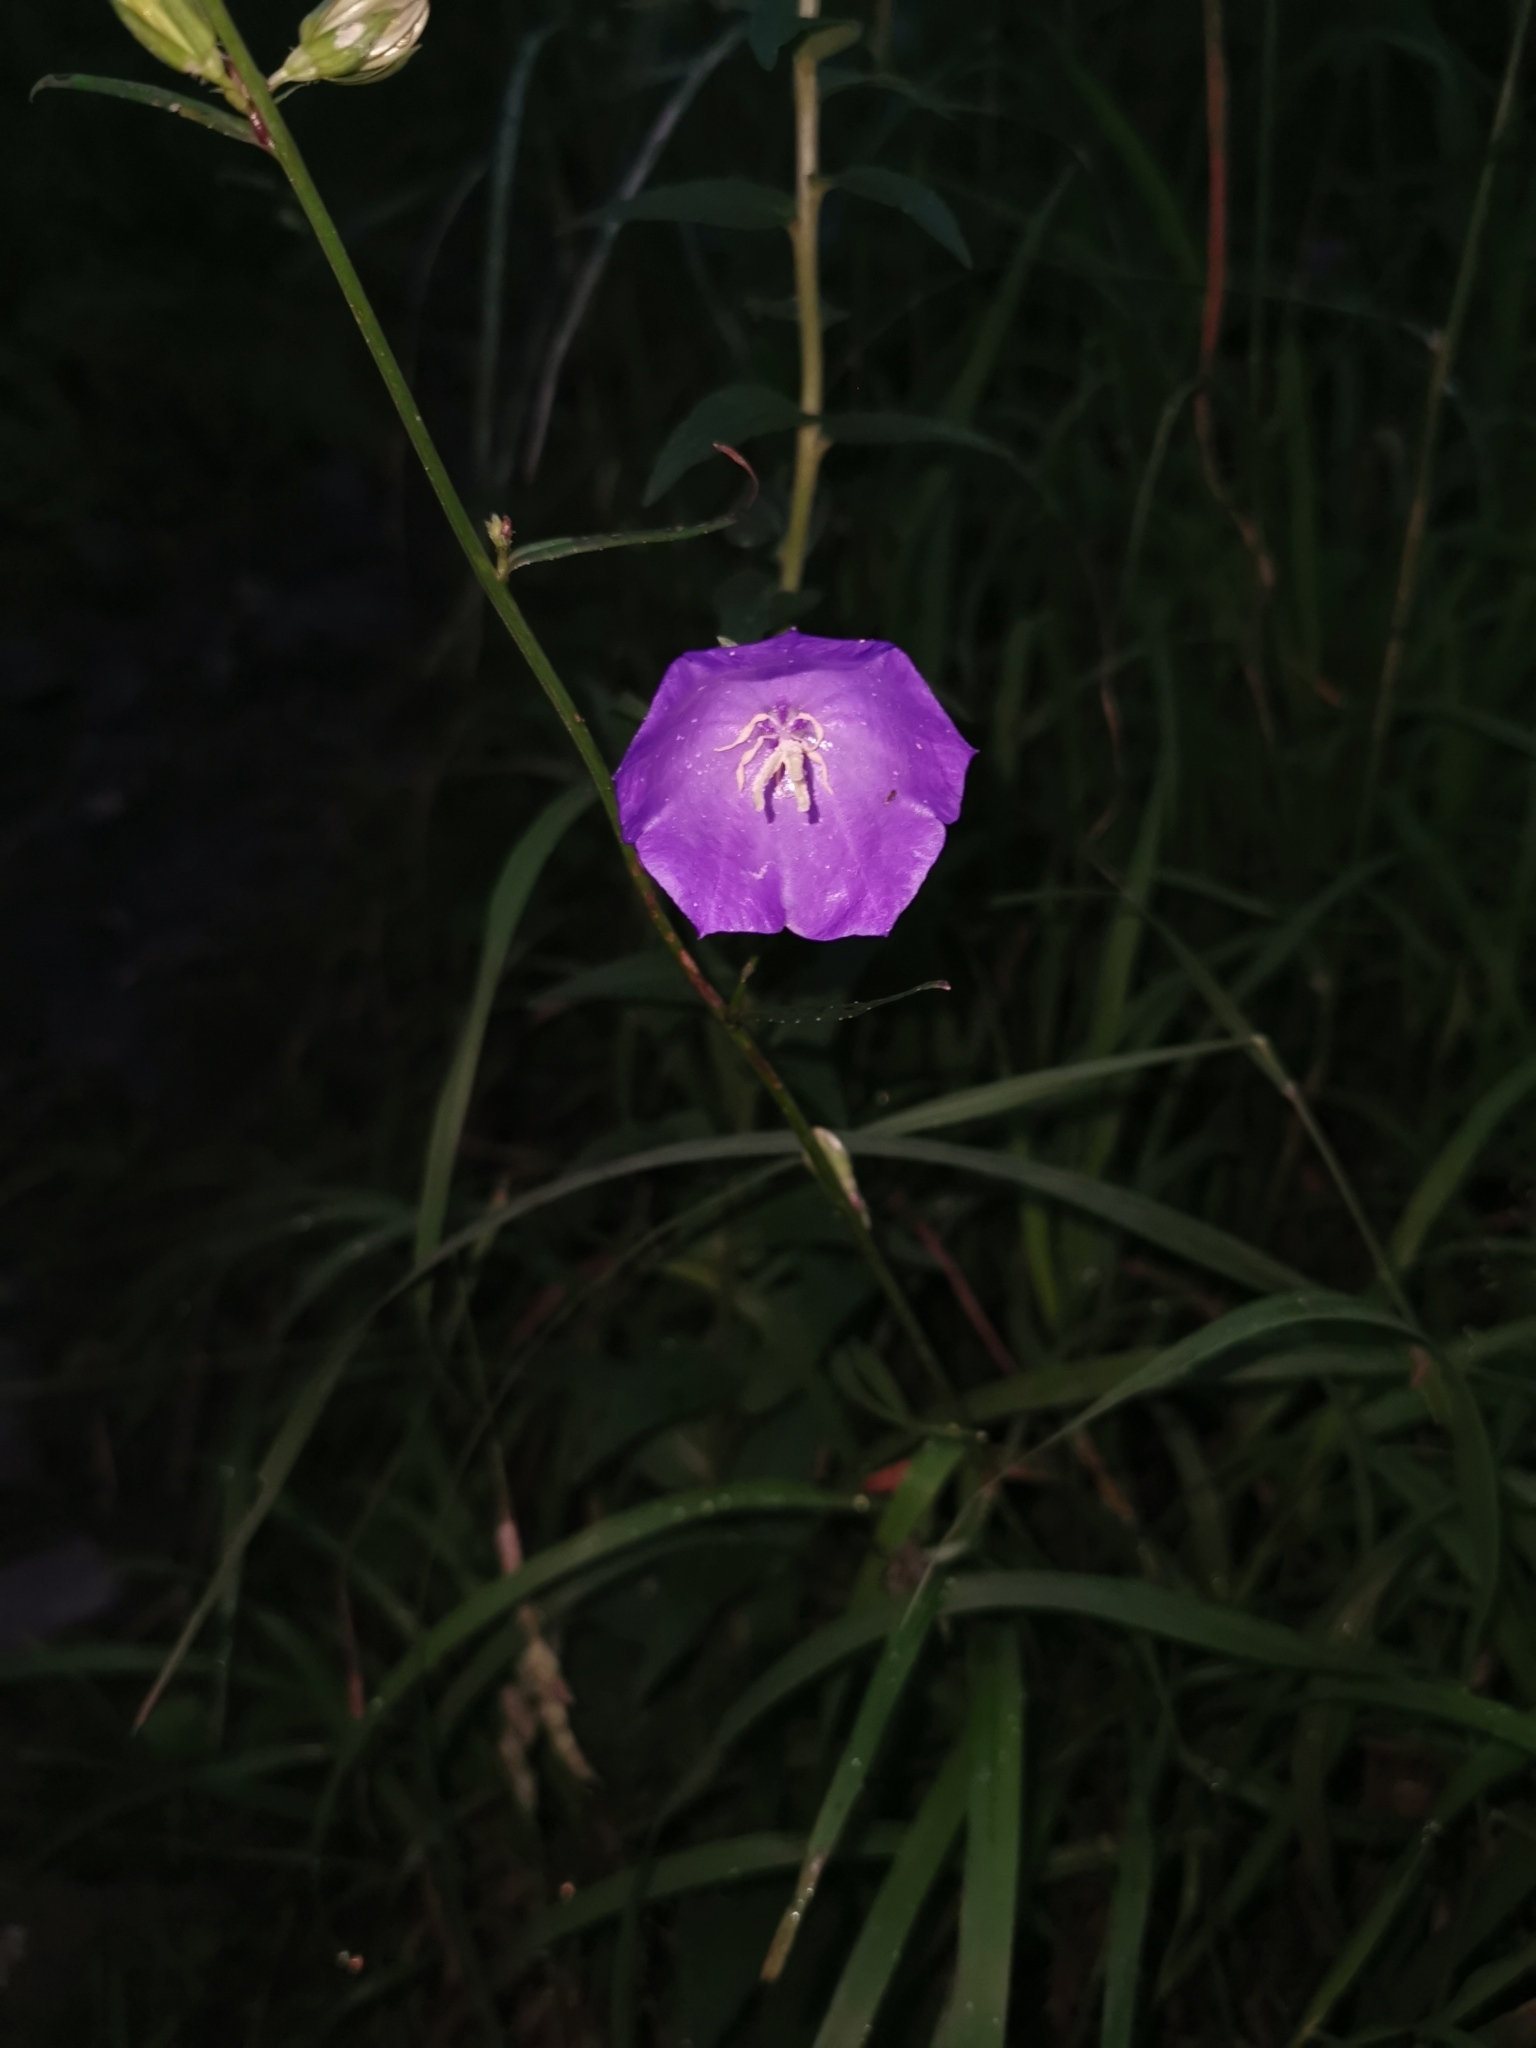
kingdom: Plantae
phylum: Tracheophyta
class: Magnoliopsida
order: Asterales
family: Campanulaceae
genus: Campanula
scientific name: Campanula persicifolia
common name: Peach-leaved bellflower
